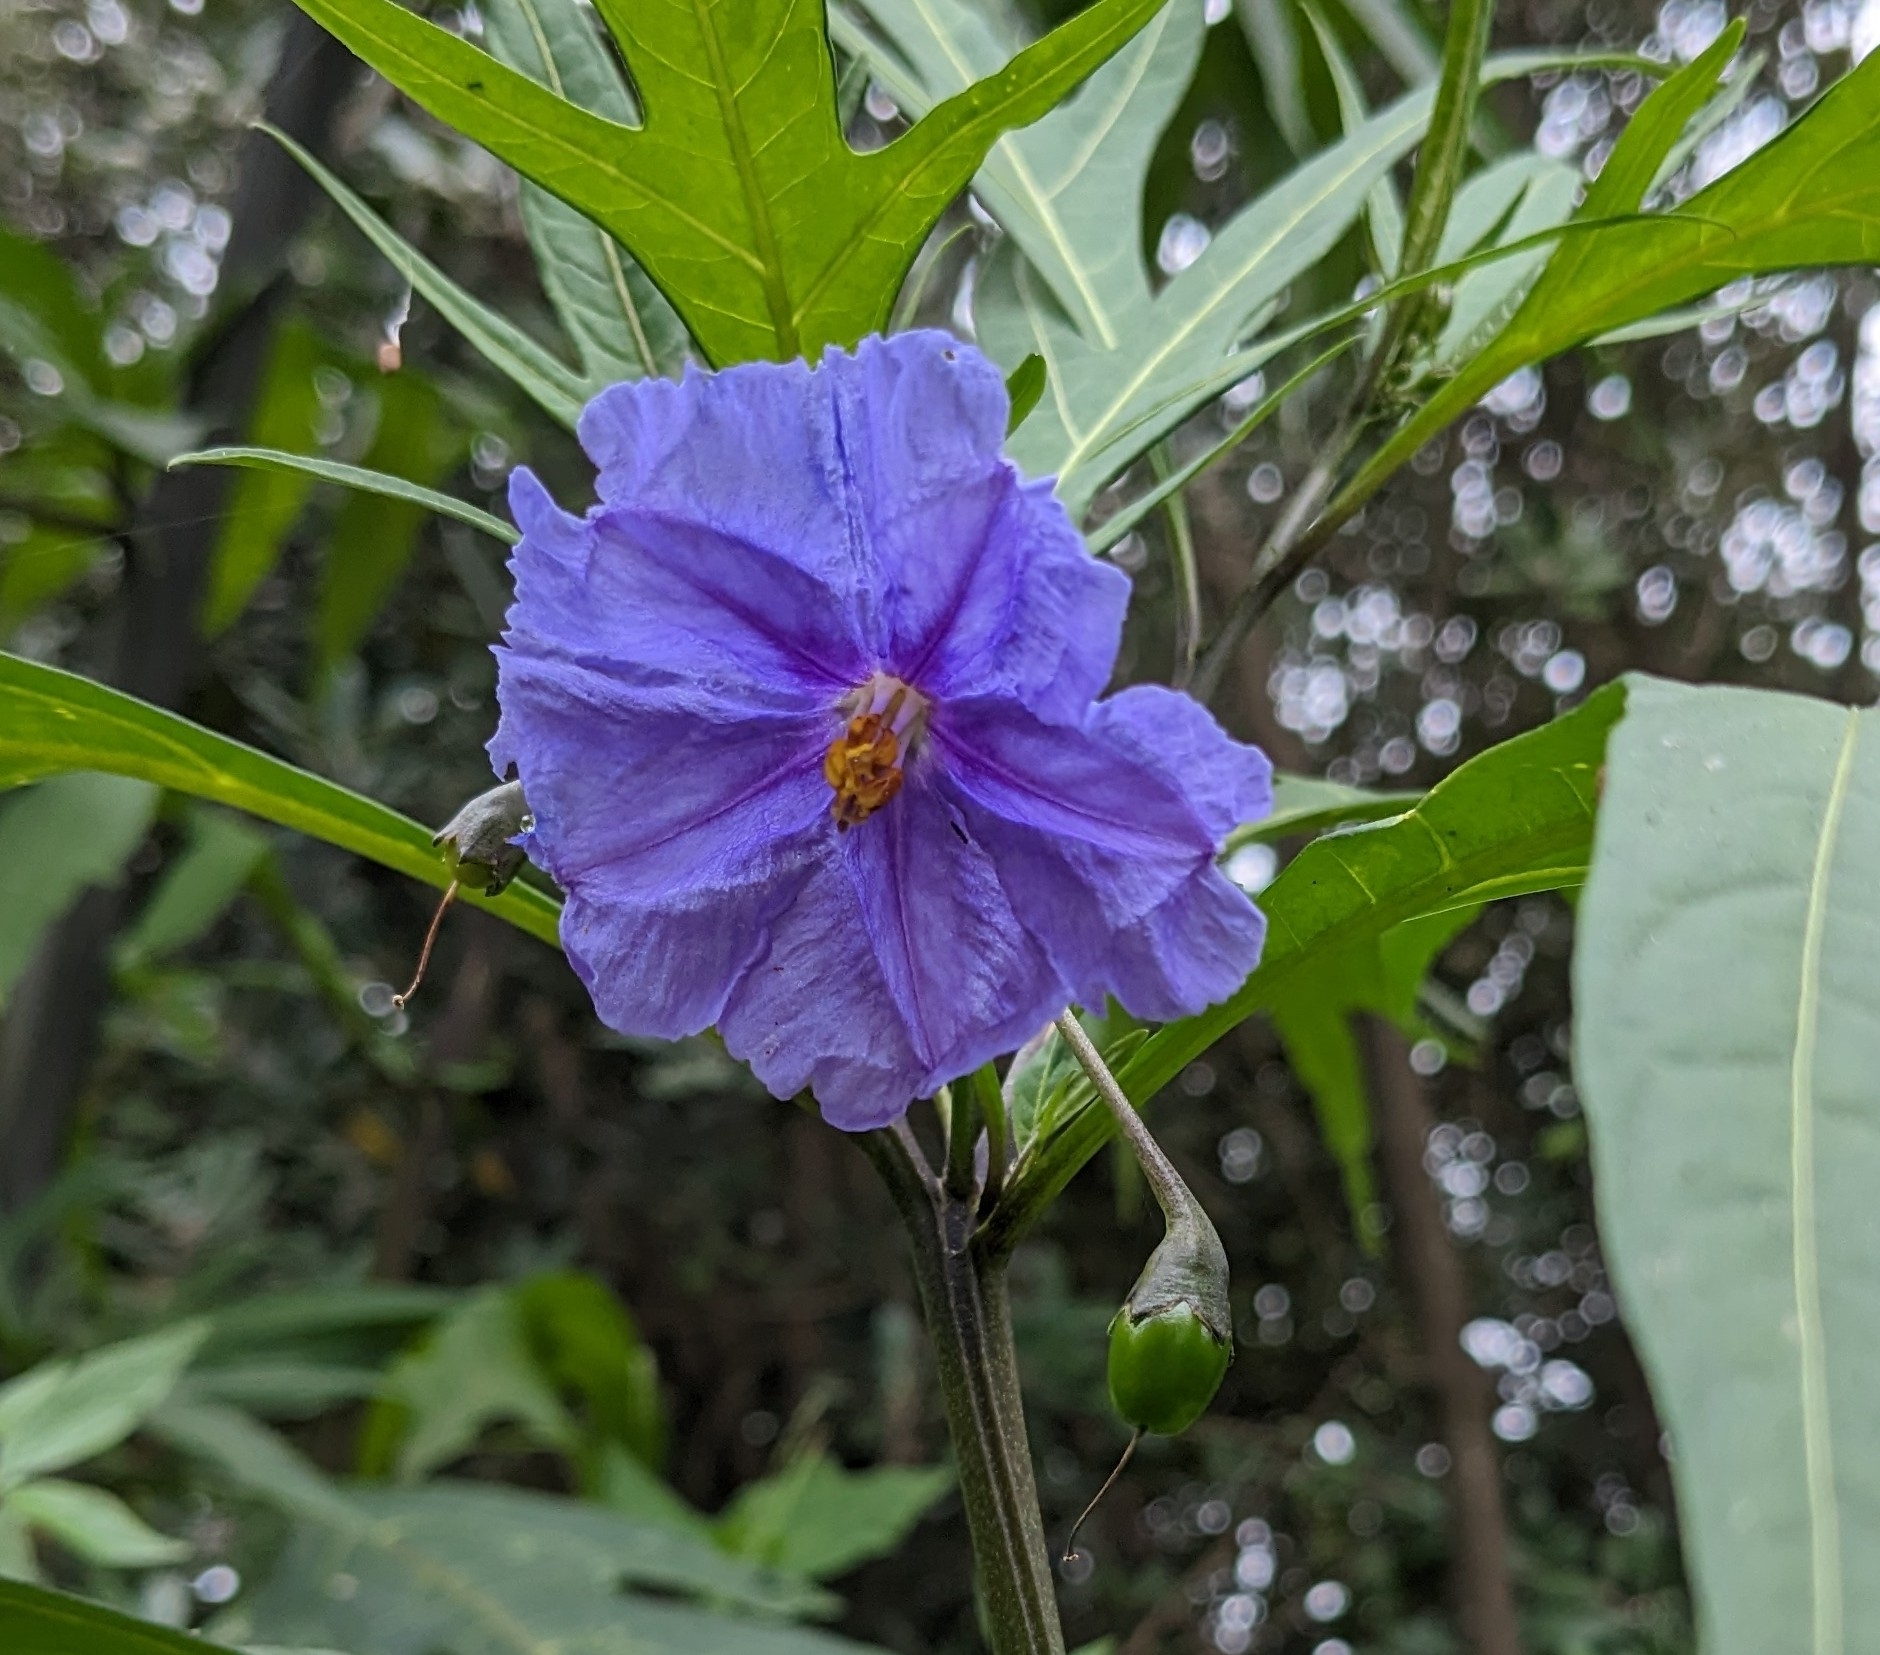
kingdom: Plantae
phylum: Tracheophyta
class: Magnoliopsida
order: Solanales
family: Solanaceae
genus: Solanum
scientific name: Solanum laciniatum
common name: Kangaroo-apple
